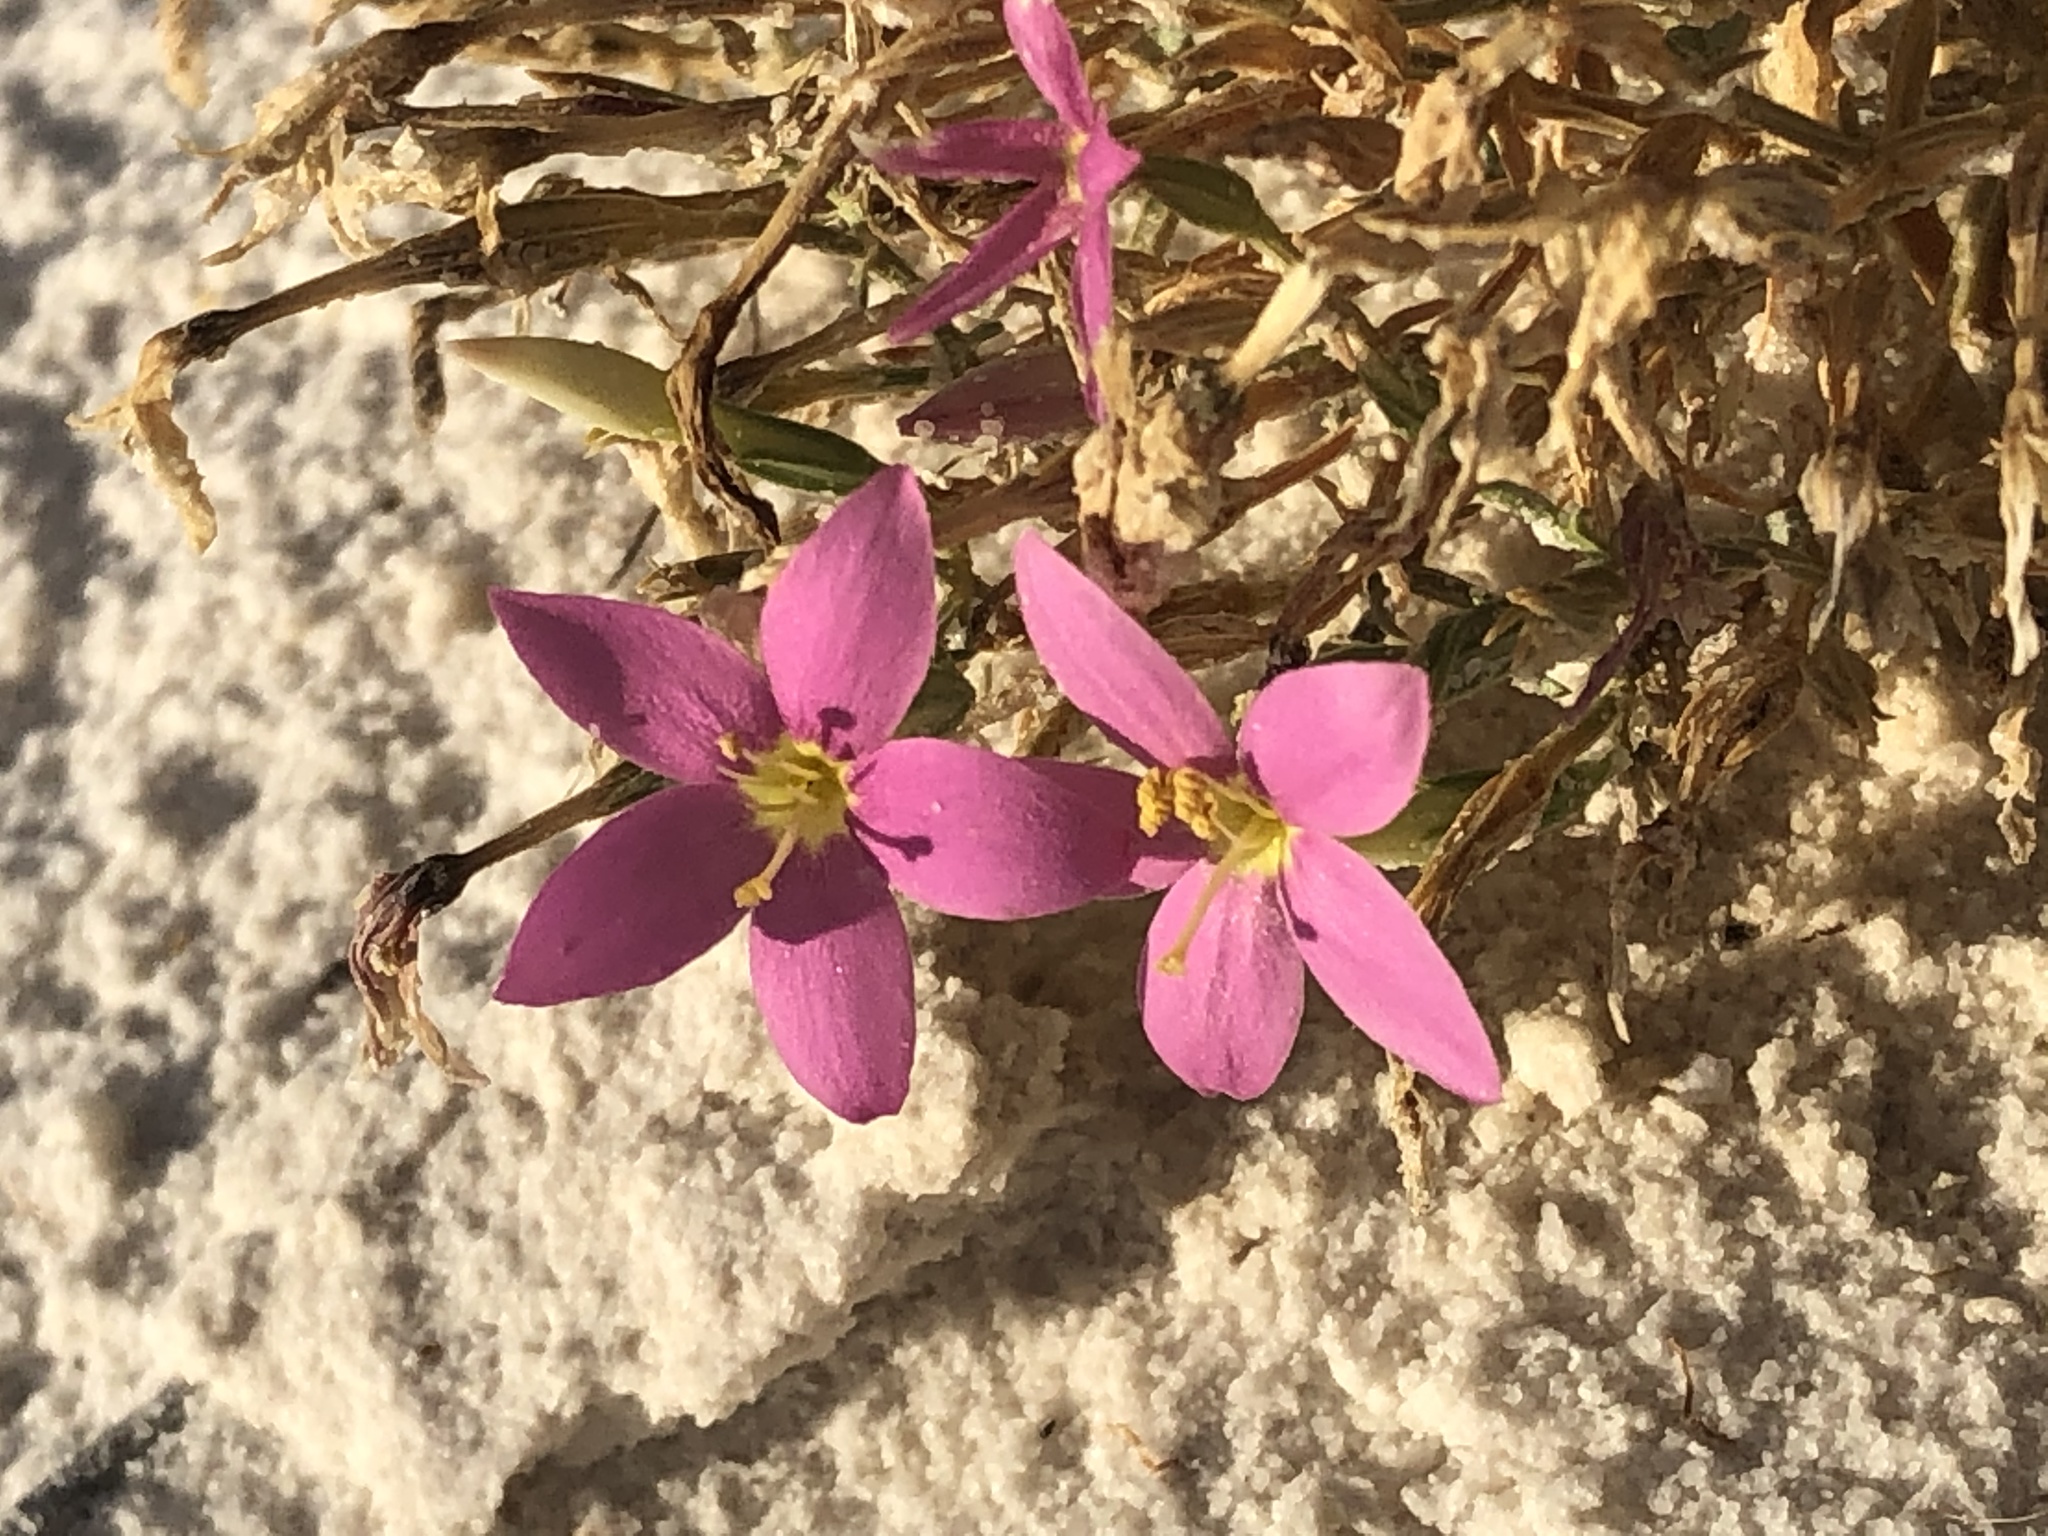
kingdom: Plantae
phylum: Tracheophyta
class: Magnoliopsida
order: Gentianales
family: Gentianaceae
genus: Zeltnera
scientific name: Zeltnera maryanniana
